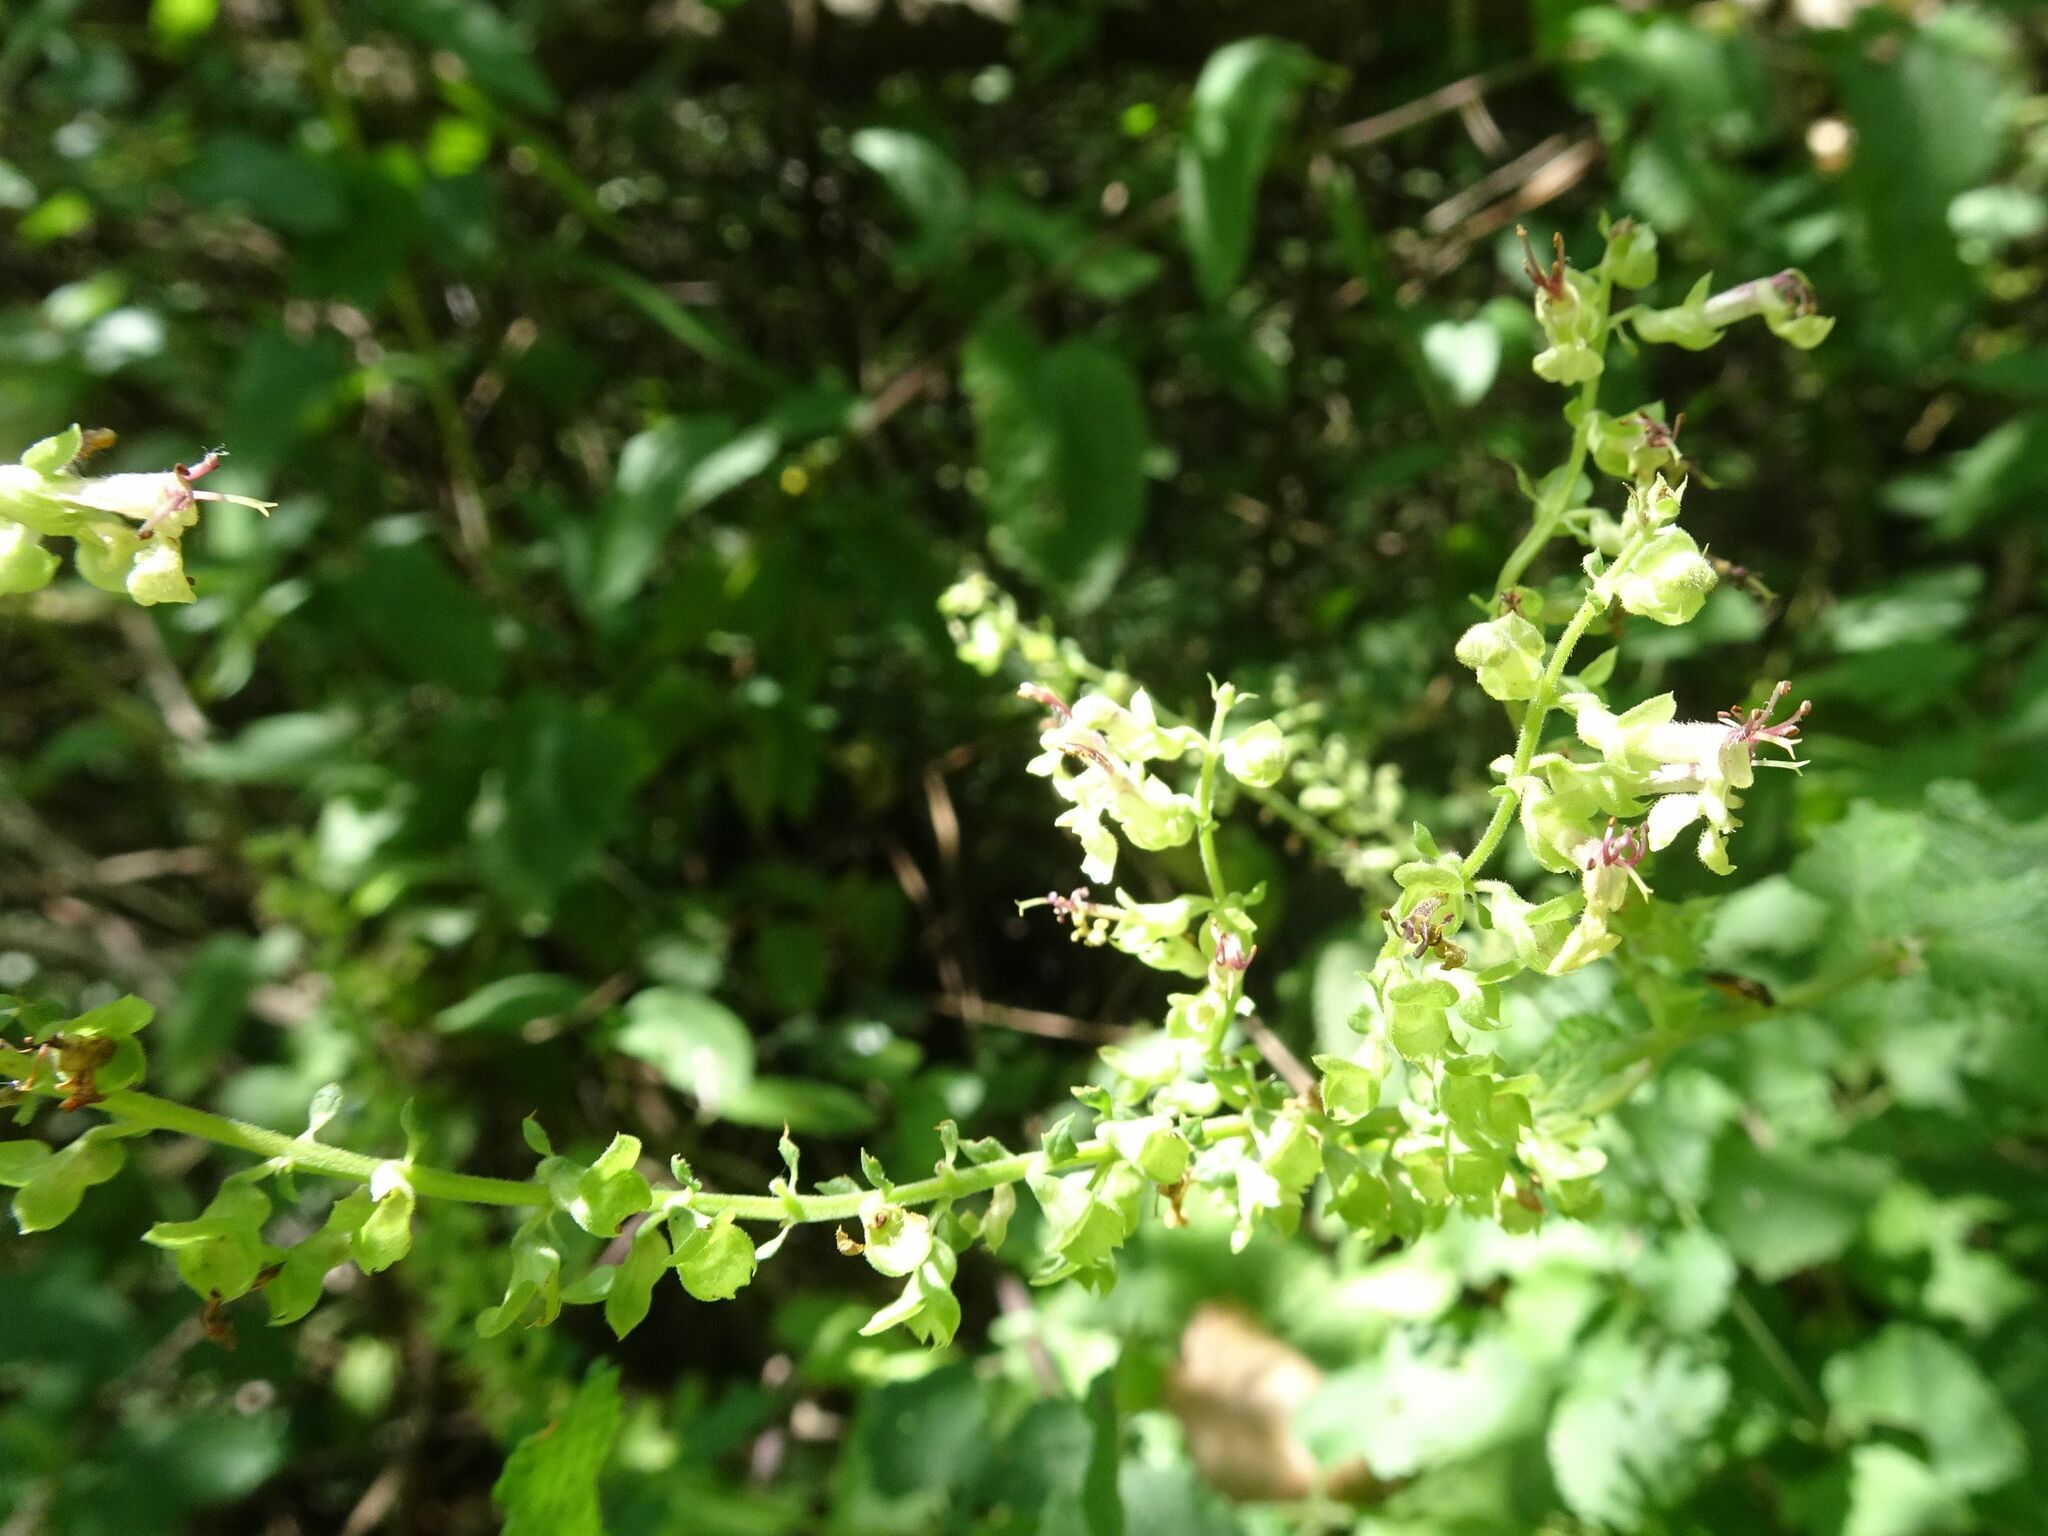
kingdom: Plantae
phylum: Tracheophyta
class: Magnoliopsida
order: Lamiales
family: Lamiaceae
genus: Teucrium
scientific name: Teucrium scorodonia
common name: Woodland germander
